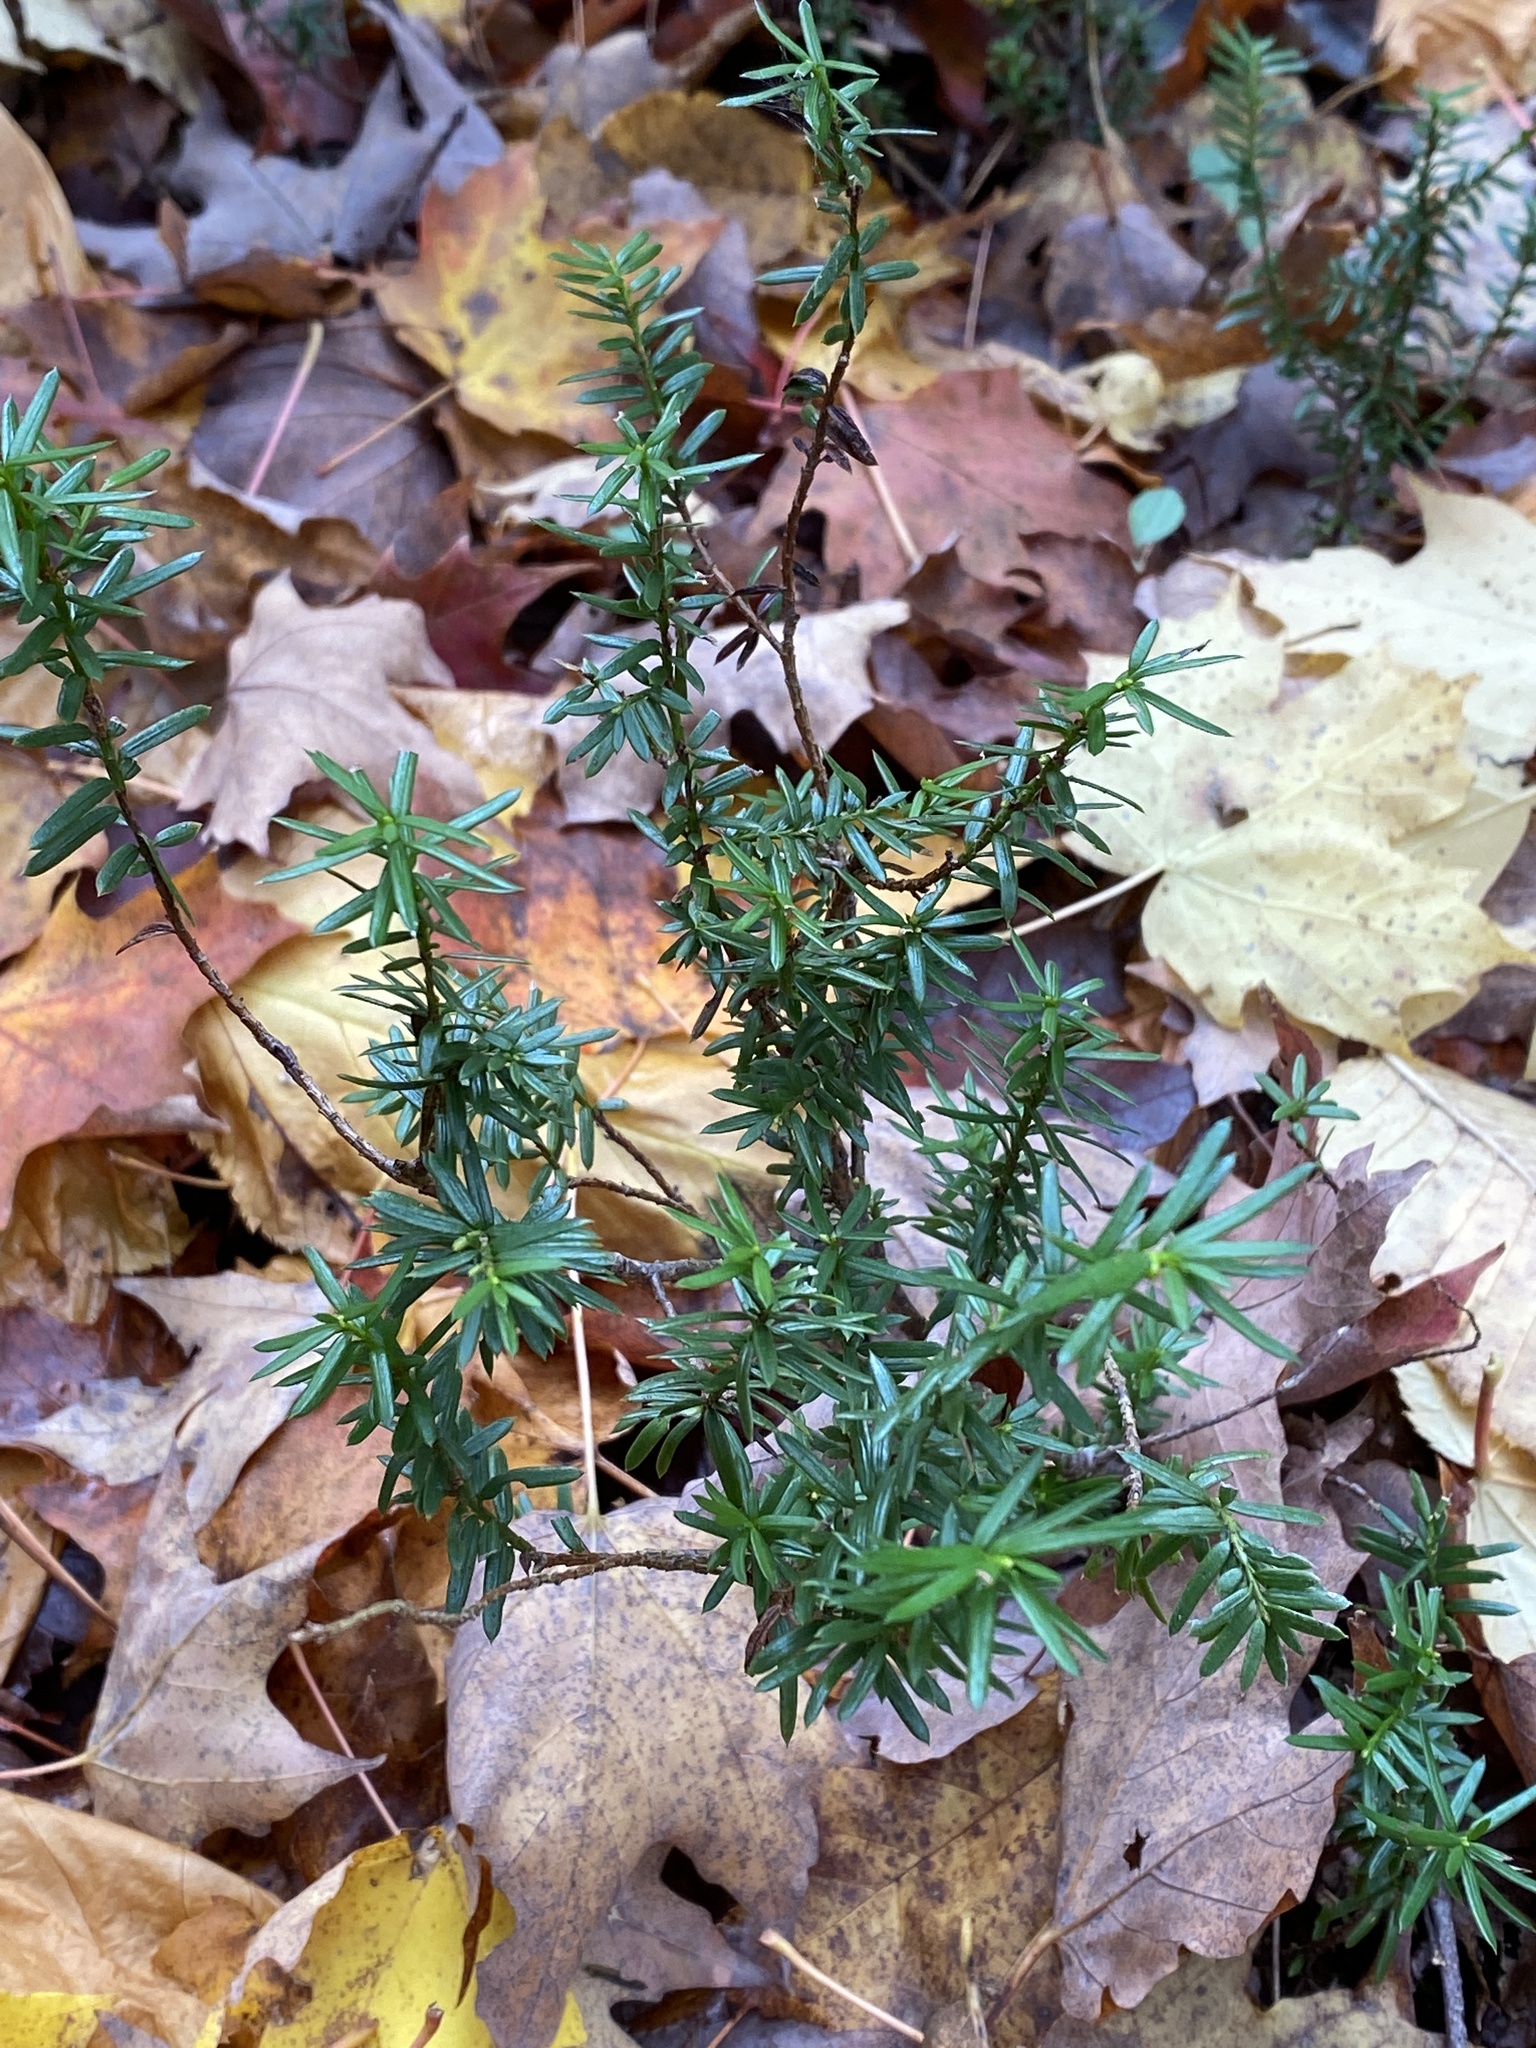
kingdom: Plantae
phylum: Tracheophyta
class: Pinopsida
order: Pinales
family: Taxaceae
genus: Taxus
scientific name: Taxus canadensis
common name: American yew
